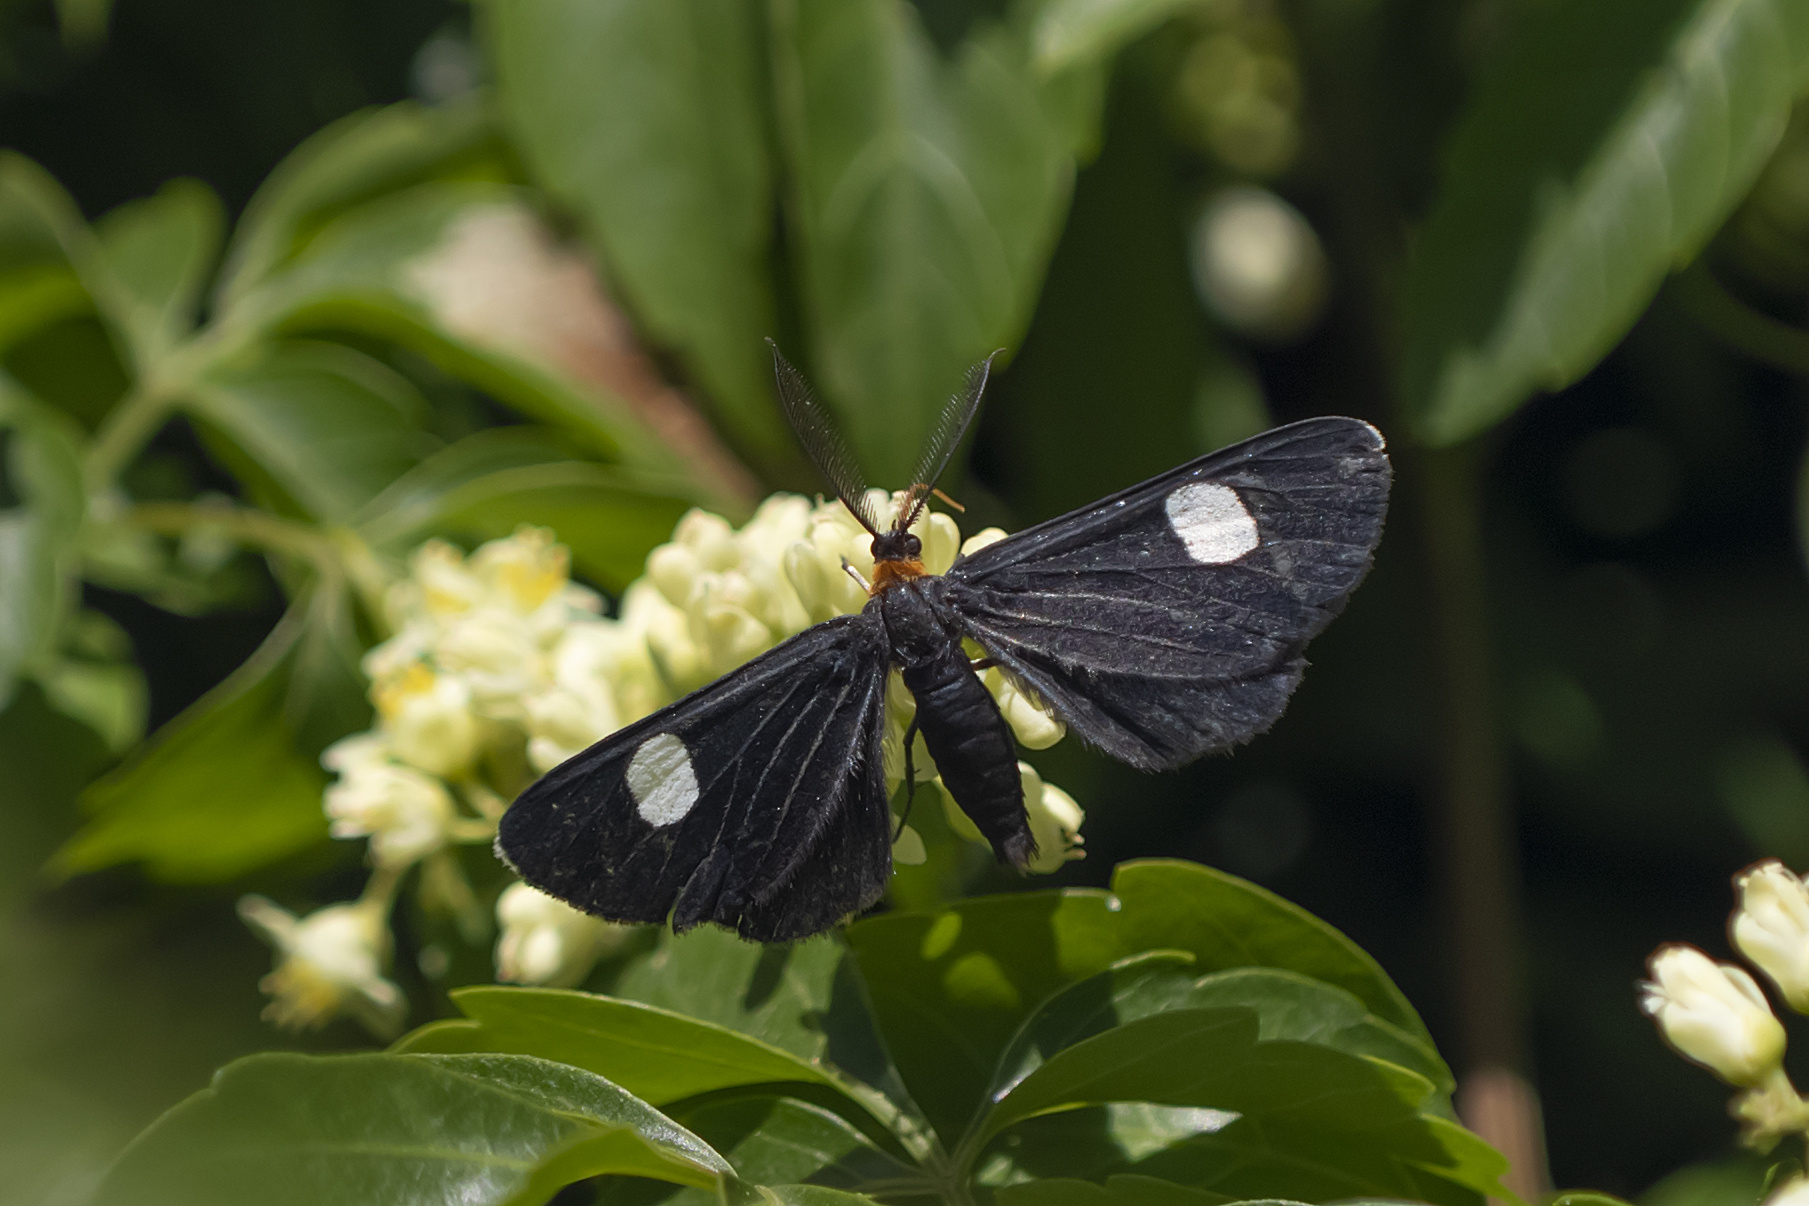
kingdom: Animalia
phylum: Arthropoda
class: Insecta
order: Lepidoptera
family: Geometridae
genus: Melanchroia
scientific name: Melanchroia aterea
